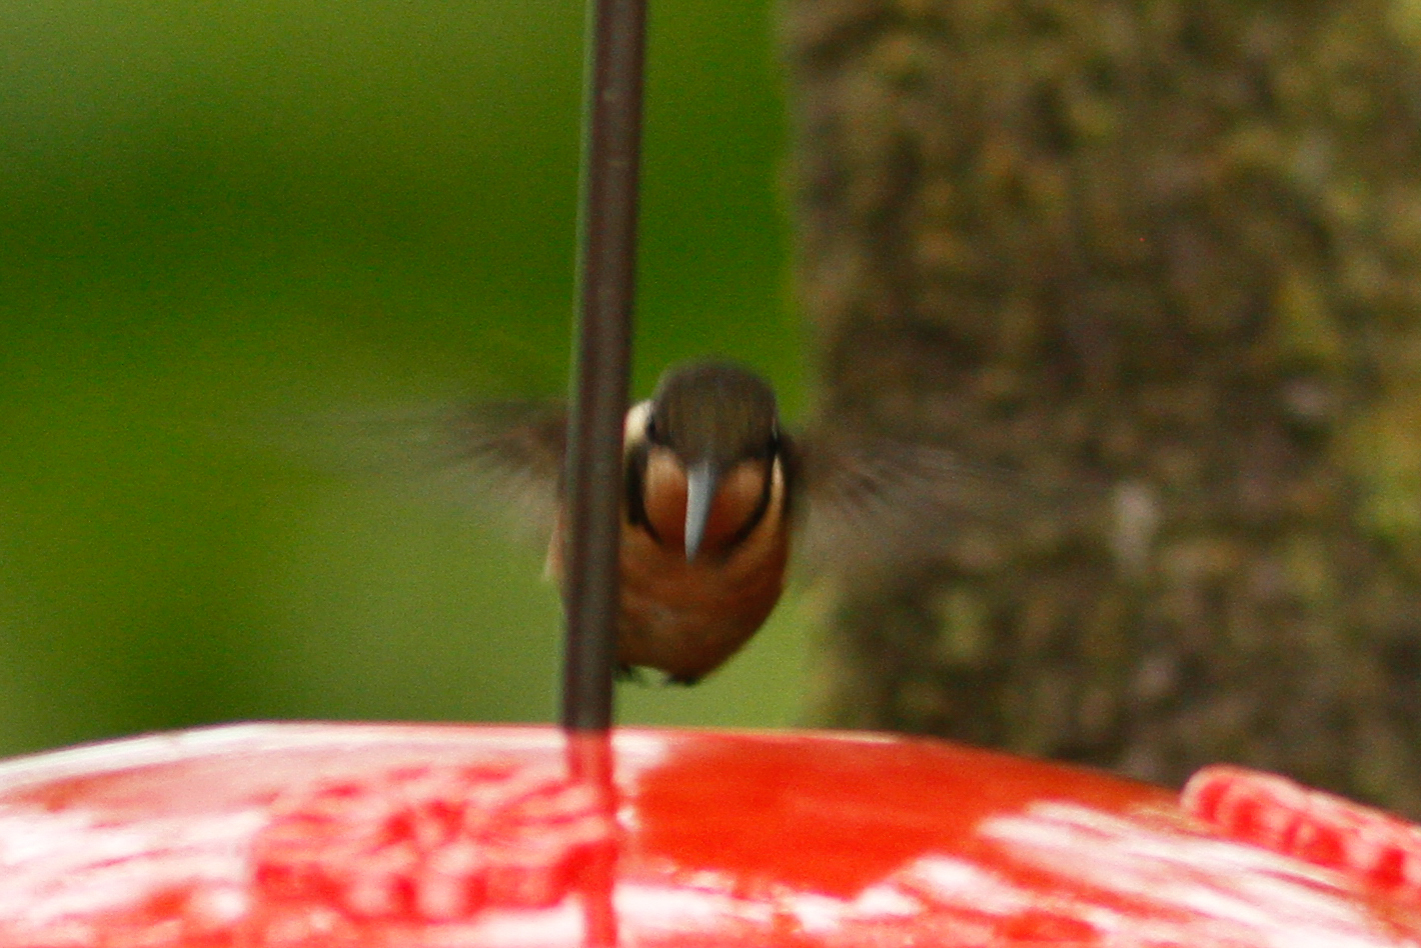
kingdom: Animalia
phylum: Chordata
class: Aves
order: Apodiformes
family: Trochilidae
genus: Calliphlox
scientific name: Calliphlox mitchellii
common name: Purple-throated woodstar
